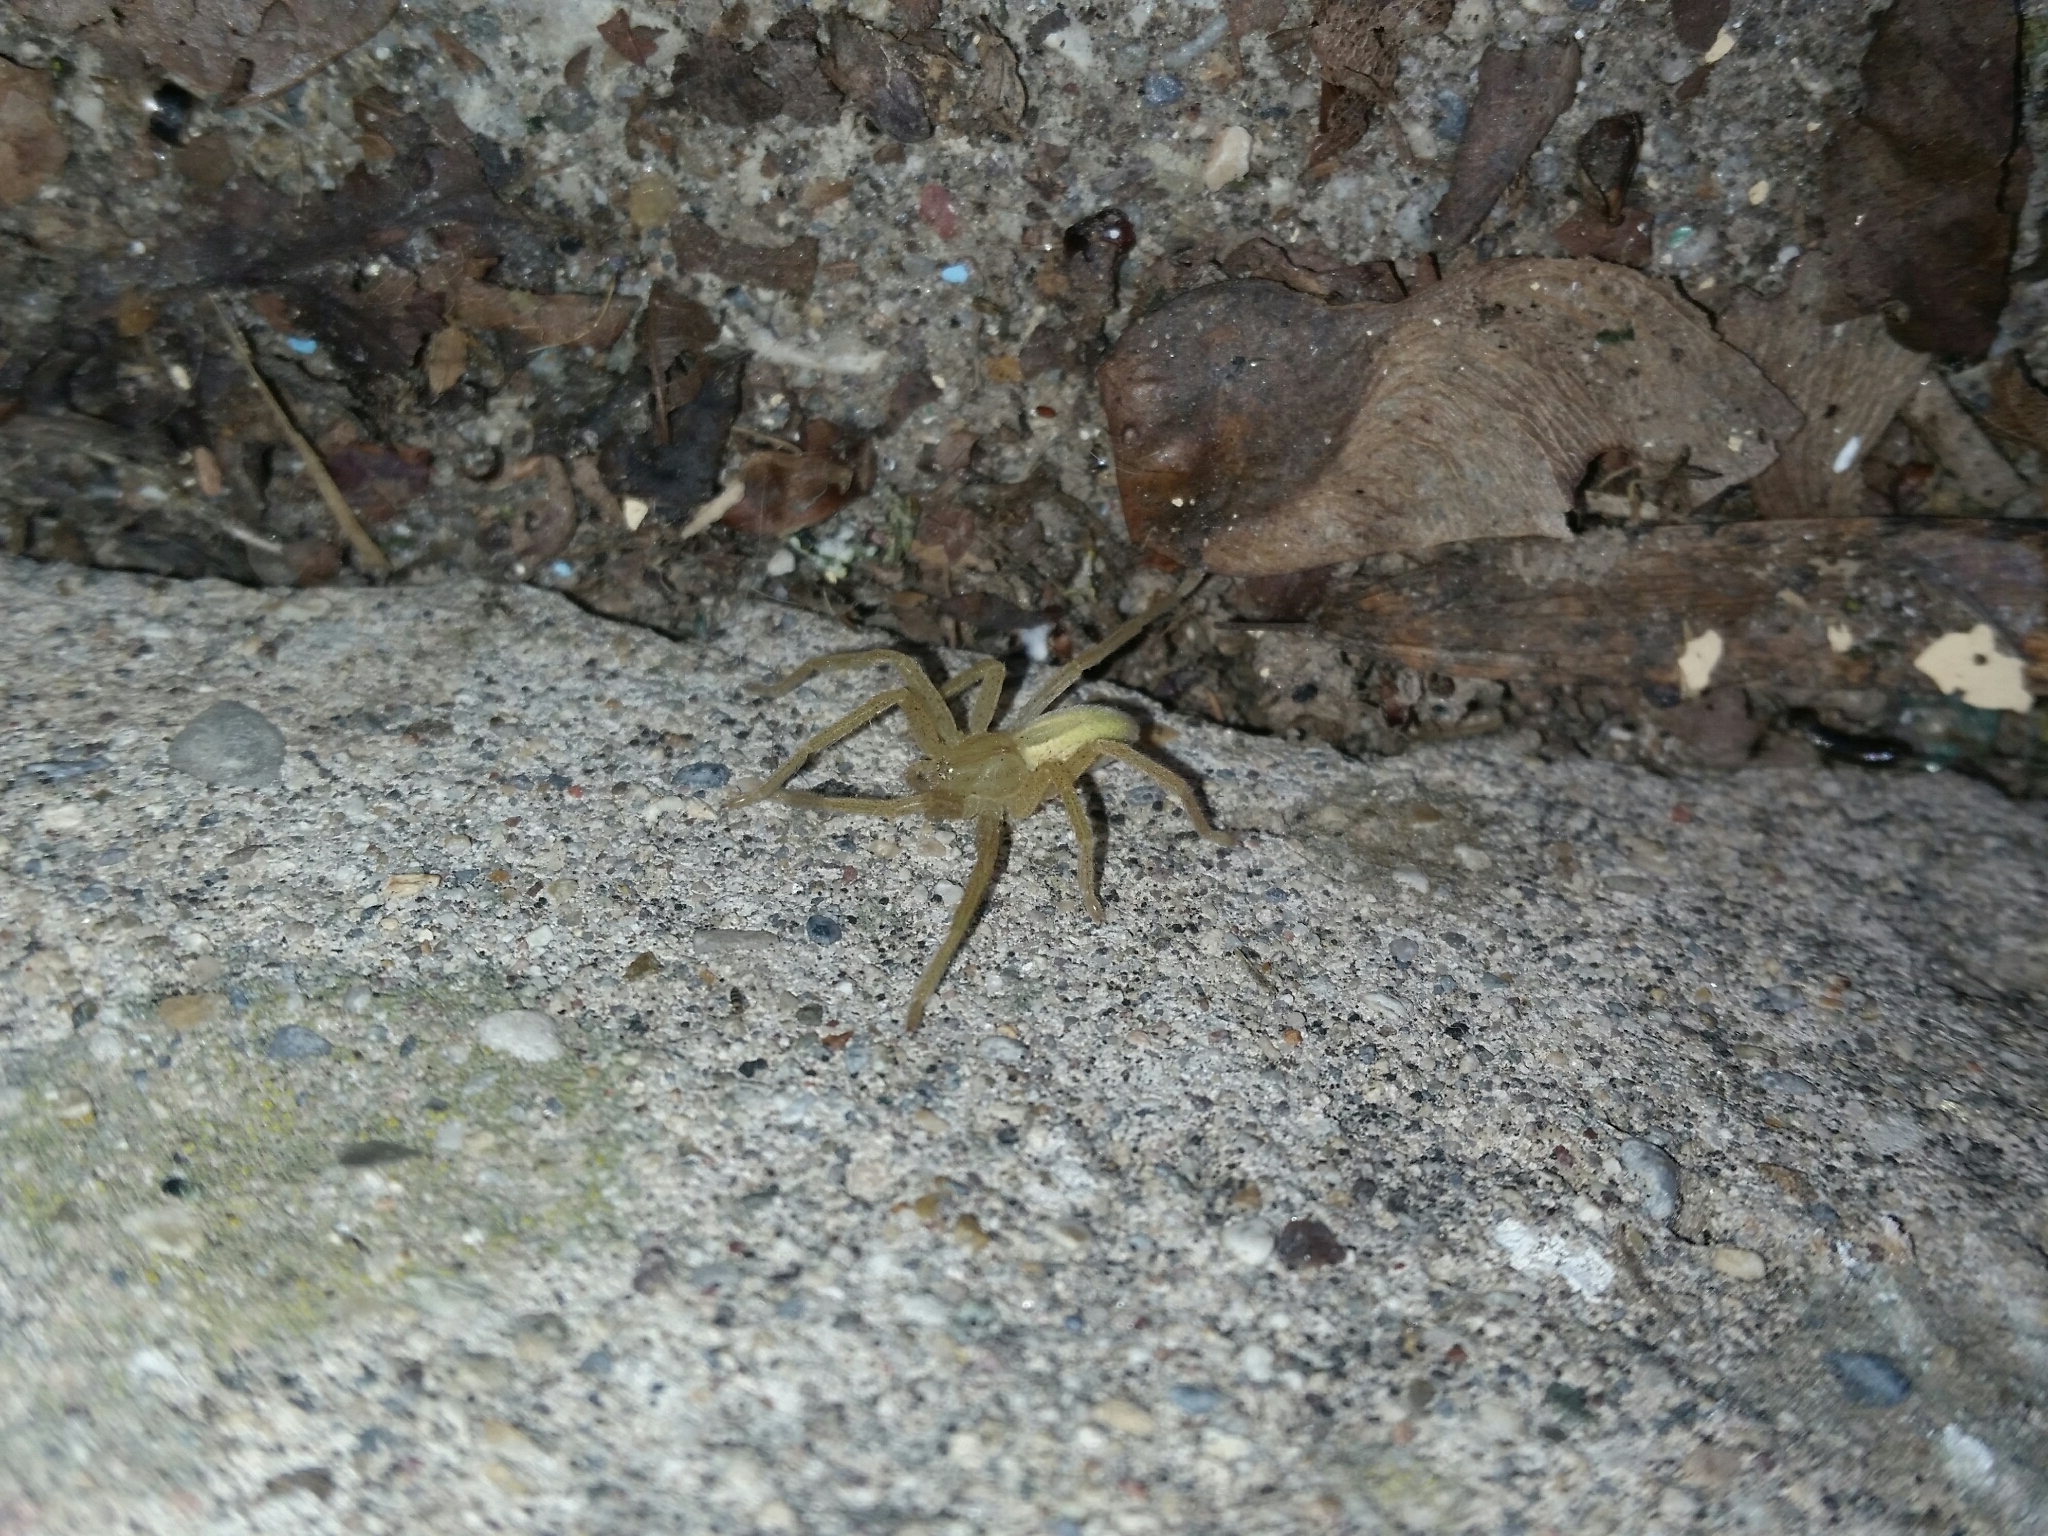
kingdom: Animalia
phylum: Arthropoda
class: Arachnida
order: Araneae
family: Sparassidae
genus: Micrommata
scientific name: Micrommata virescens
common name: Green spider
